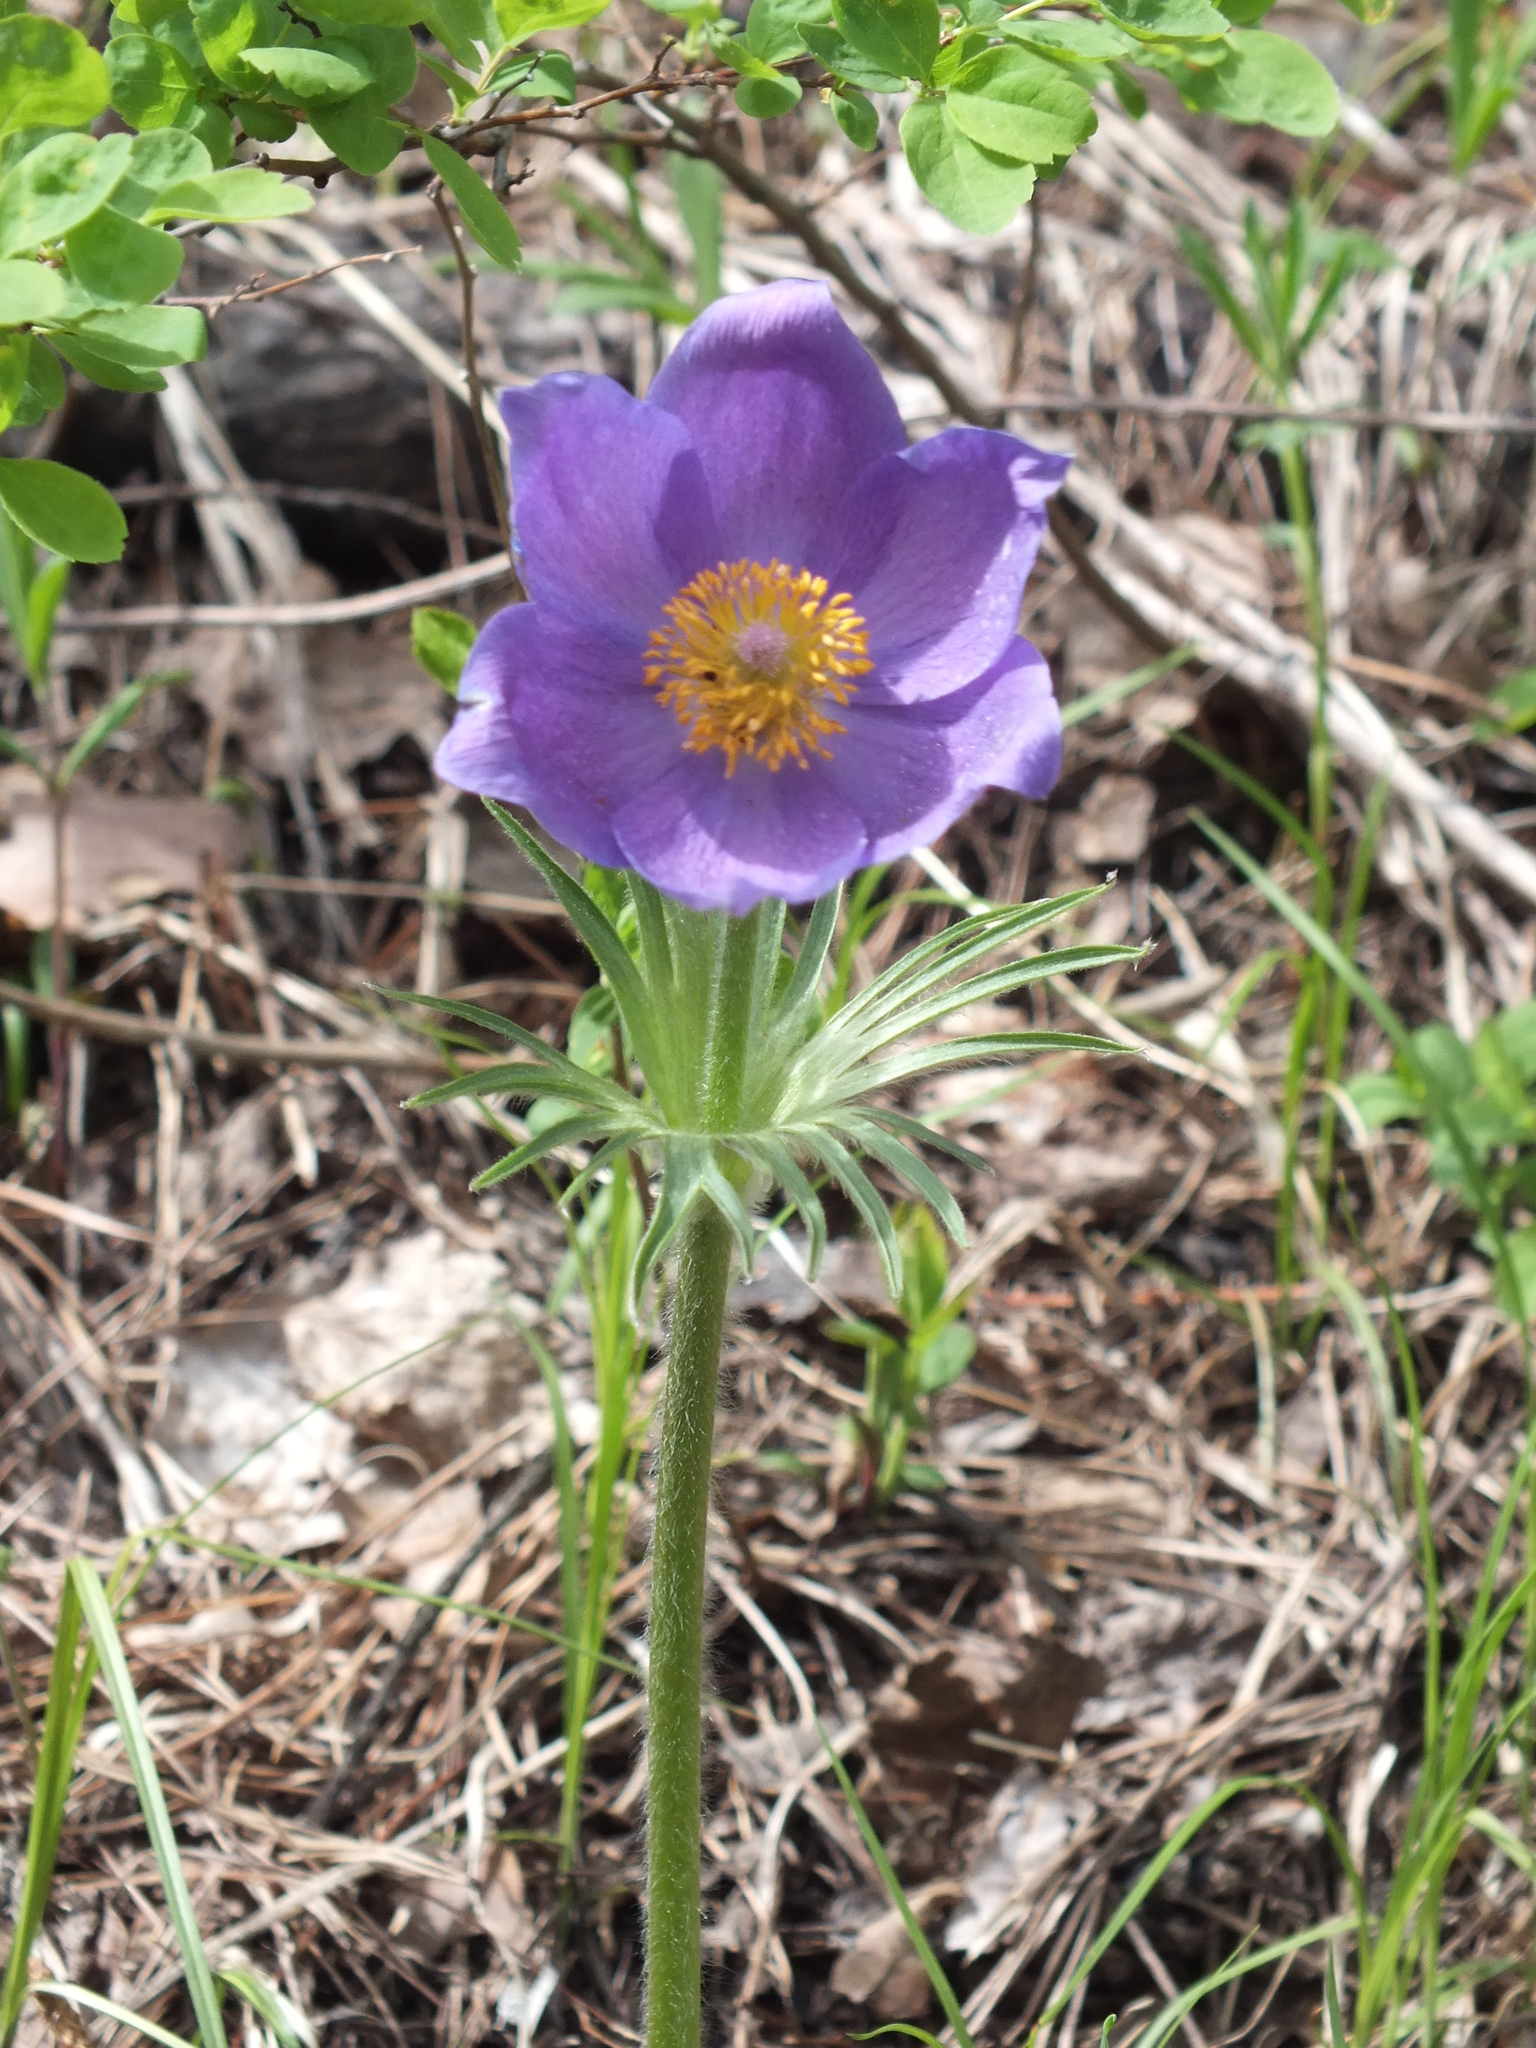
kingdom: Plantae
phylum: Tracheophyta
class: Magnoliopsida
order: Ranunculales
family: Ranunculaceae
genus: Pulsatilla
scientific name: Pulsatilla patens
